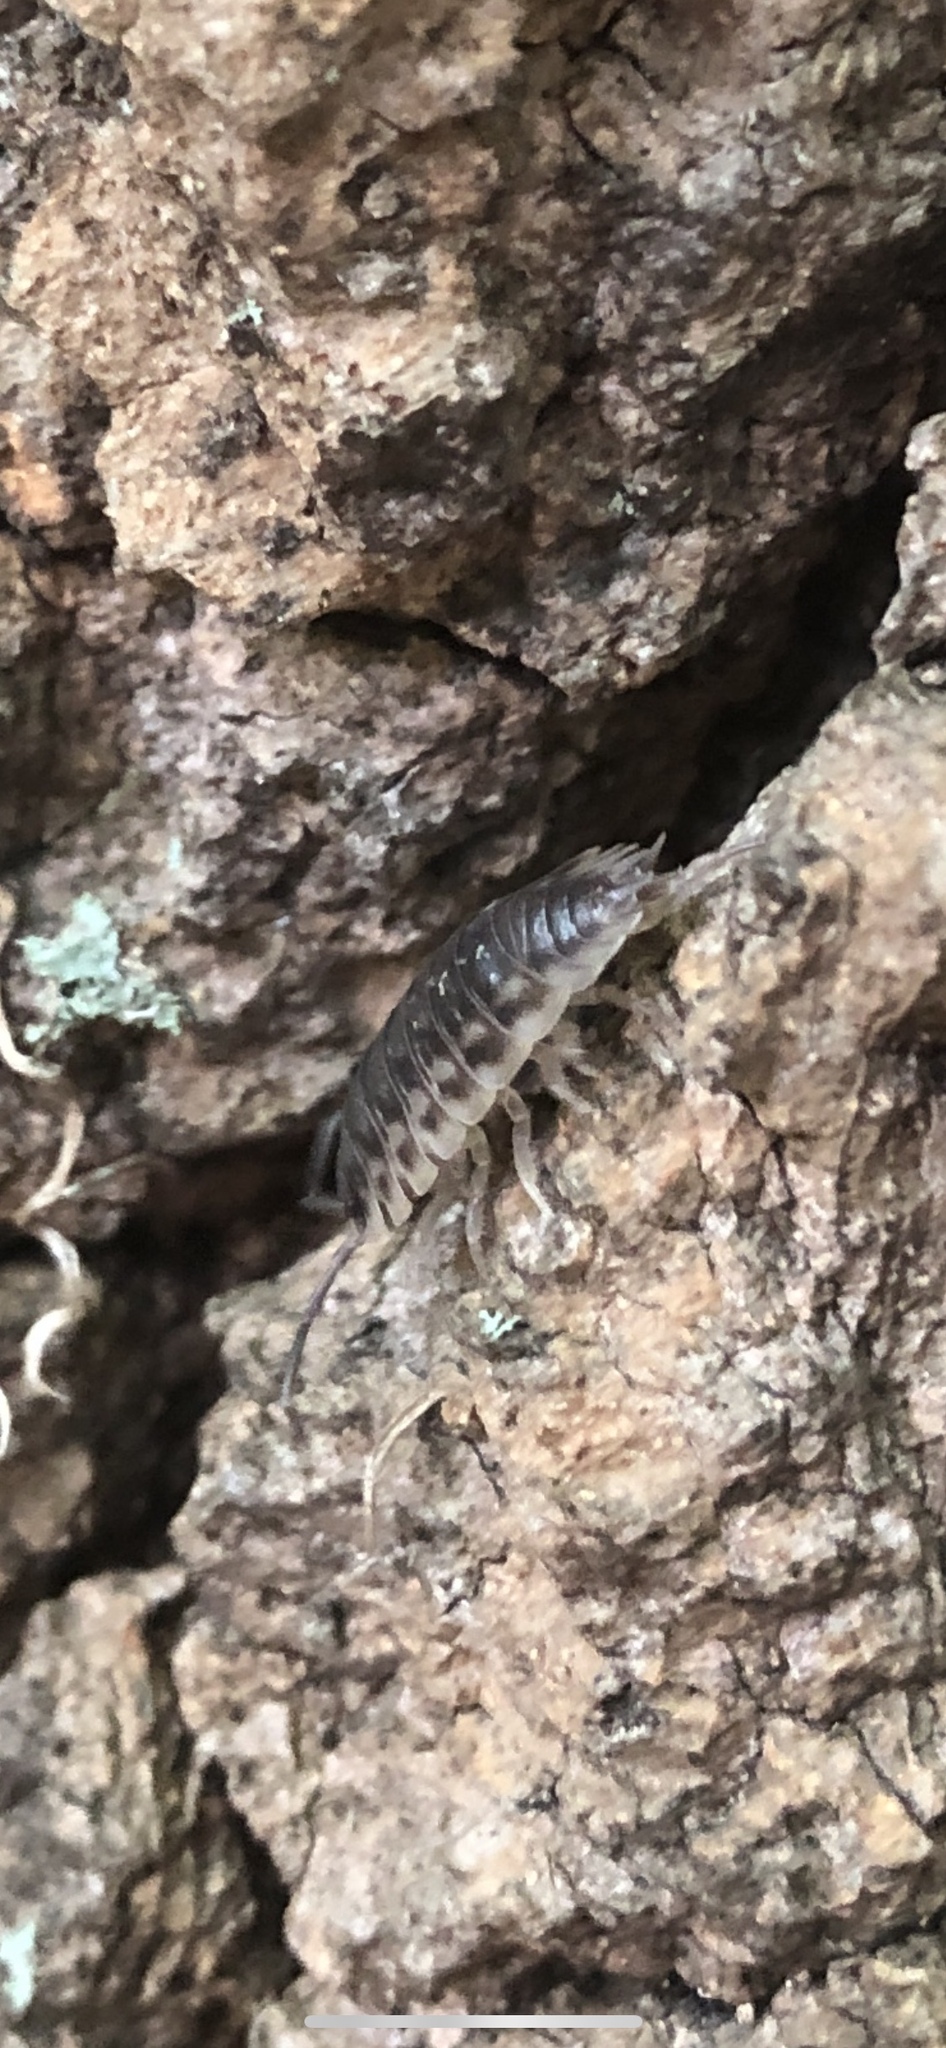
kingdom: Animalia
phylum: Arthropoda
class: Malacostraca
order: Isopoda
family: Oniscidae
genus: Oniscus
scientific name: Oniscus asellus
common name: Common shiny woodlouse
